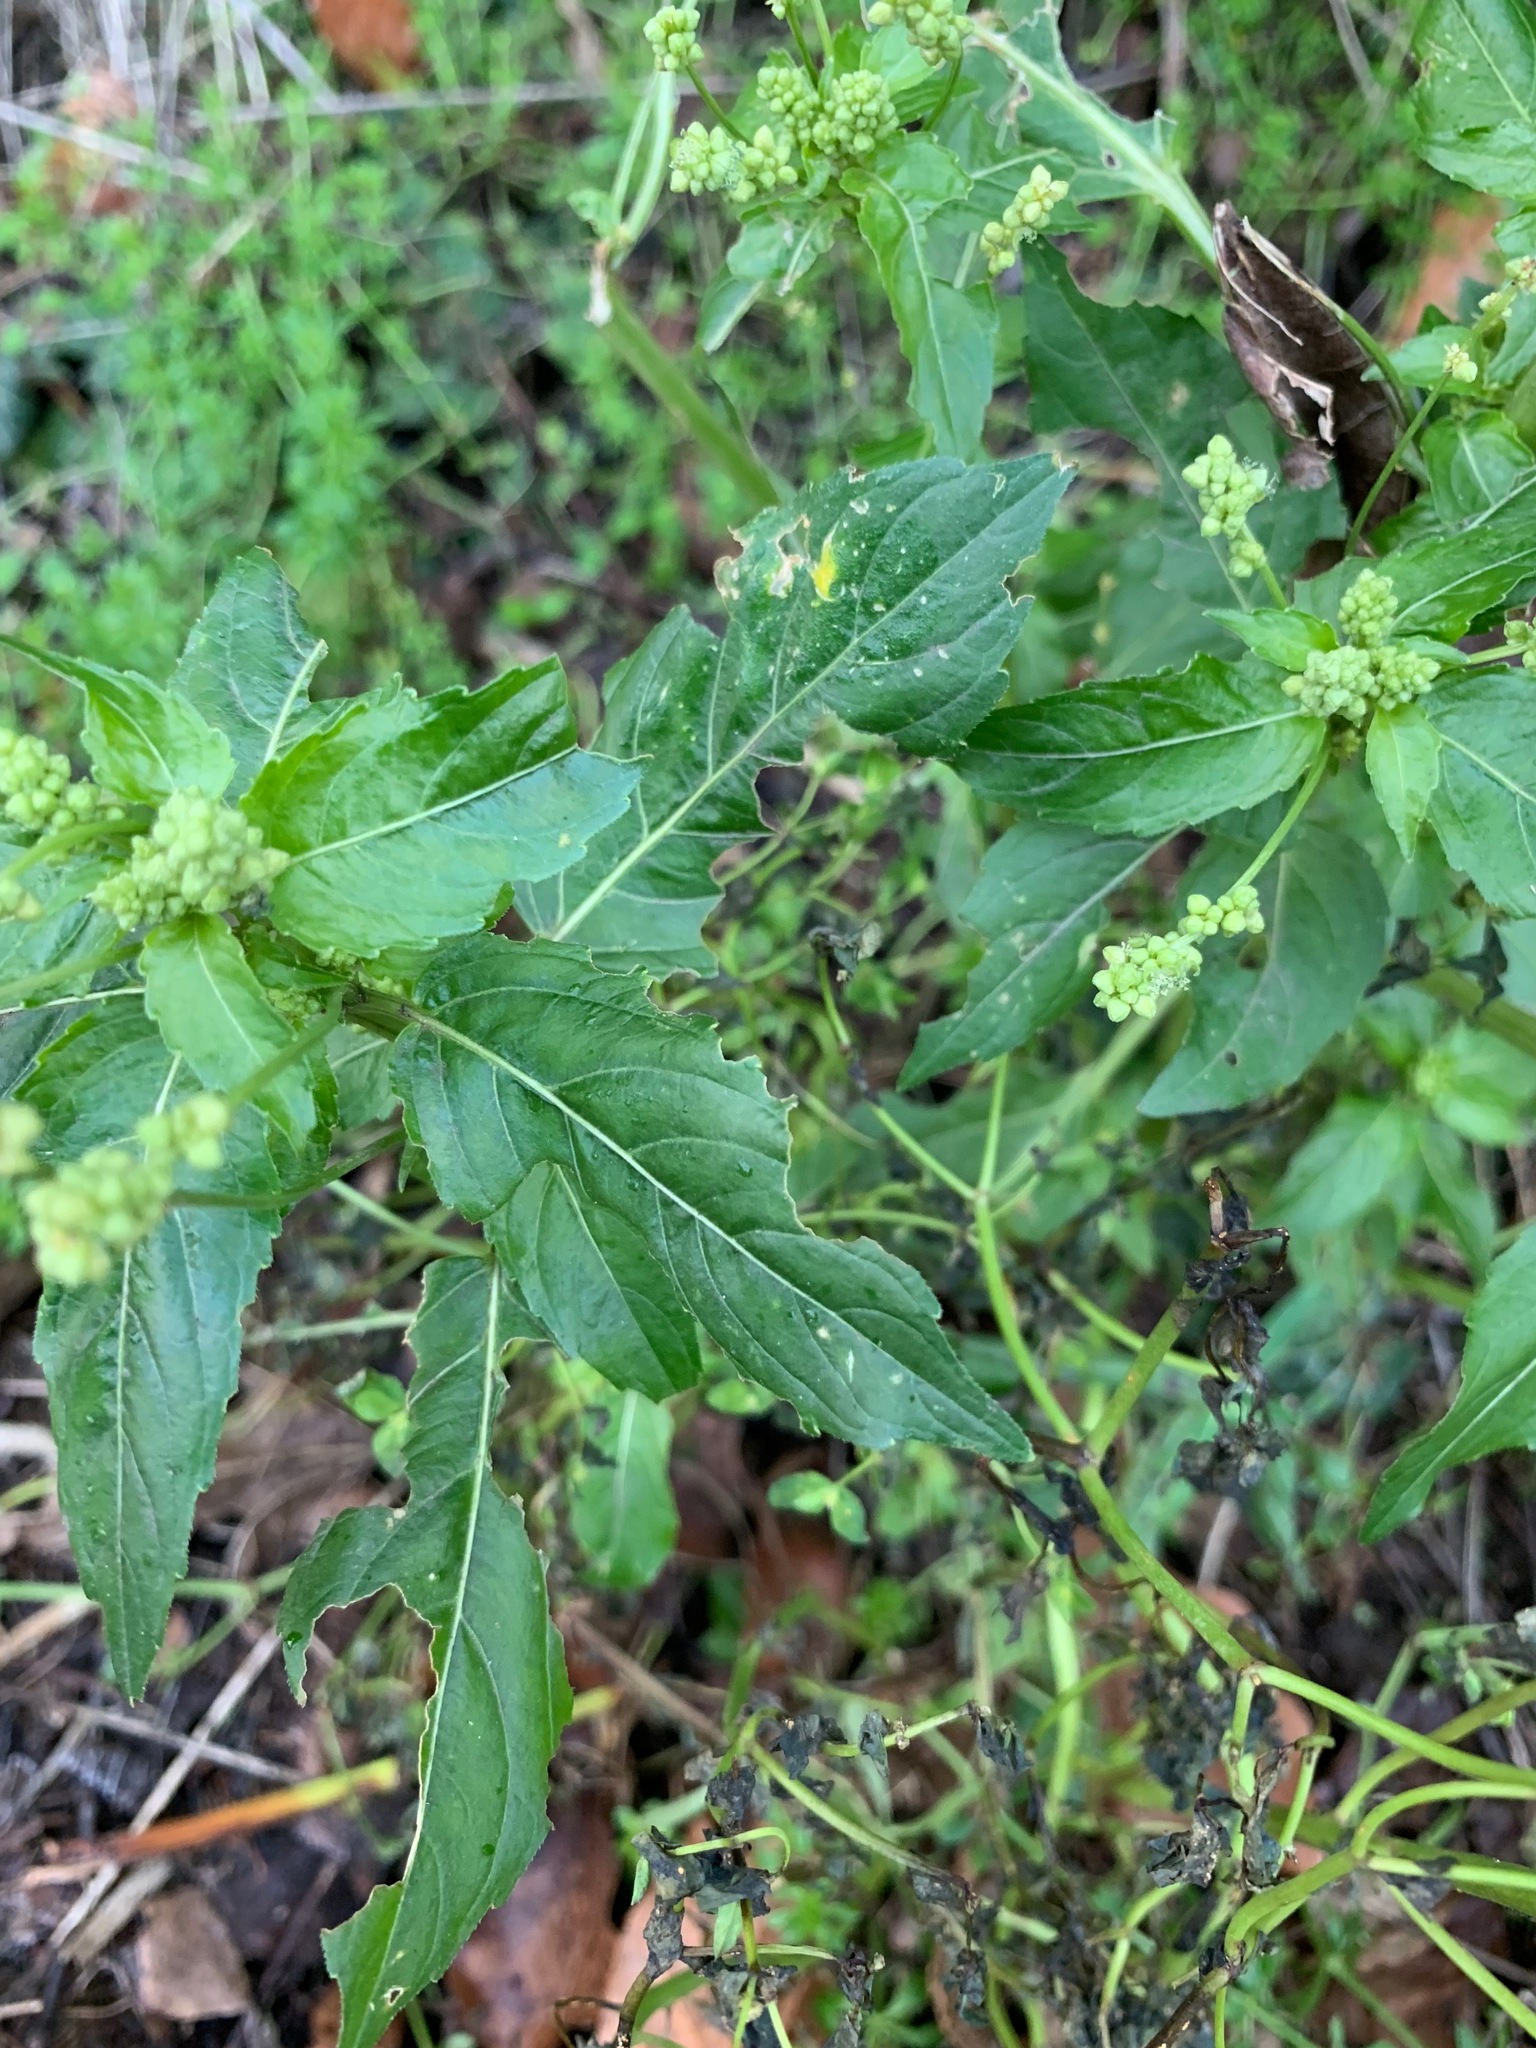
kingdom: Plantae
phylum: Tracheophyta
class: Magnoliopsida
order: Malpighiales
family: Euphorbiaceae
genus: Mercurialis
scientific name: Mercurialis annua
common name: Annual mercury
